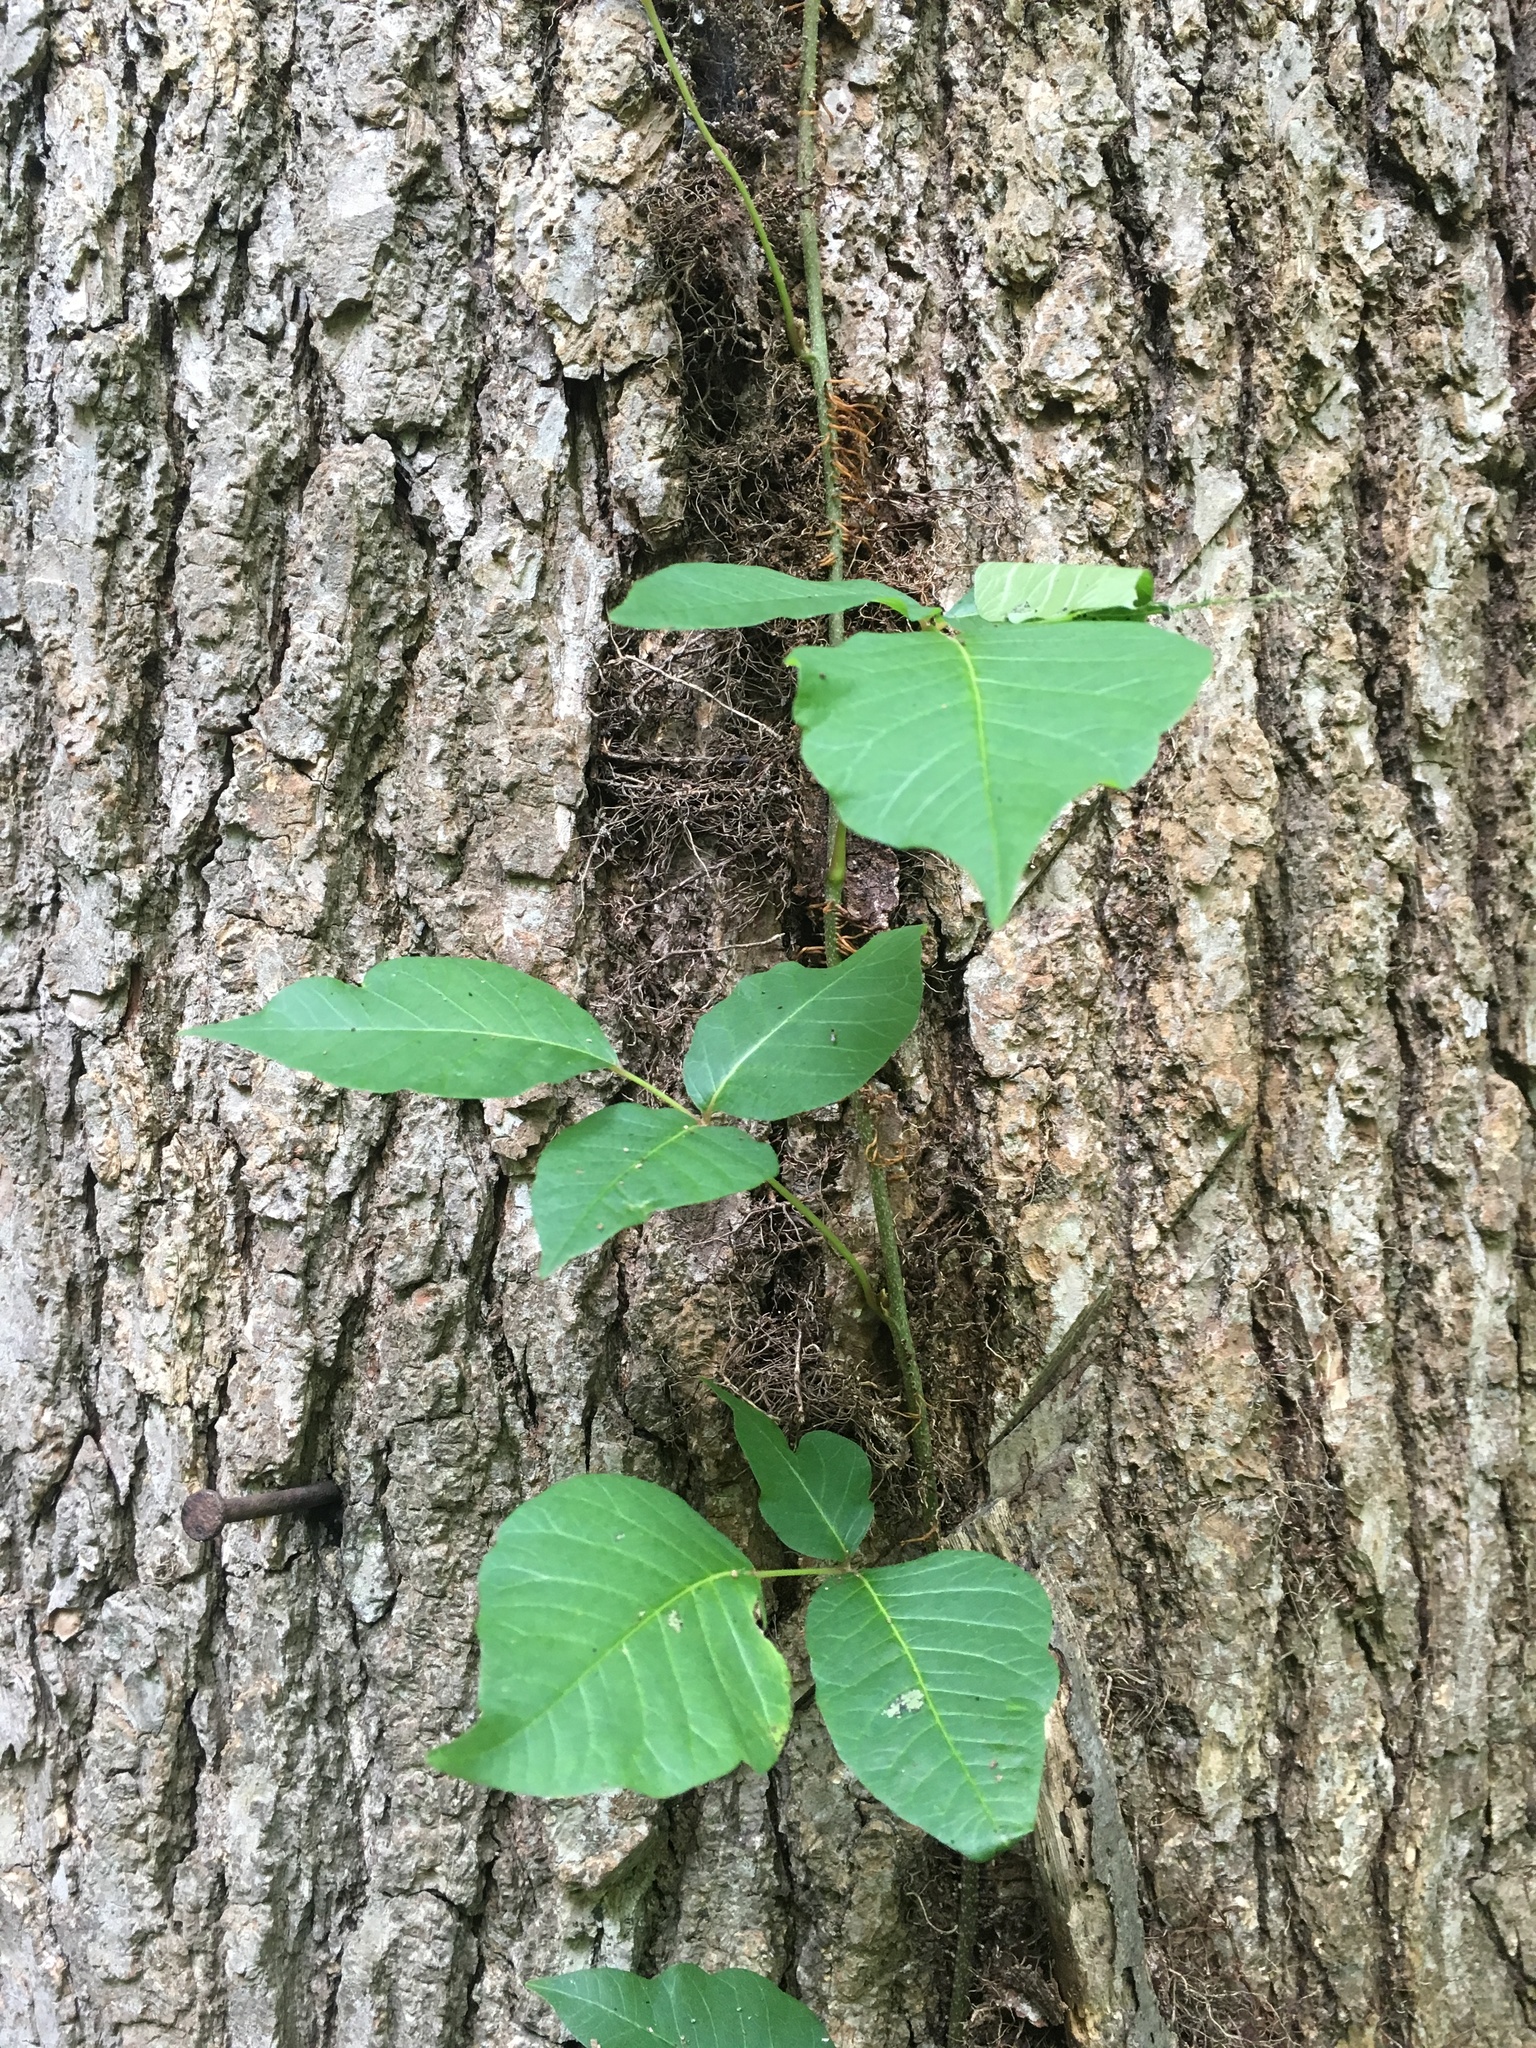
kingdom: Plantae
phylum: Tracheophyta
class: Magnoliopsida
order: Sapindales
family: Anacardiaceae
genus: Toxicodendron
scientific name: Toxicodendron radicans
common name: Poison ivy
